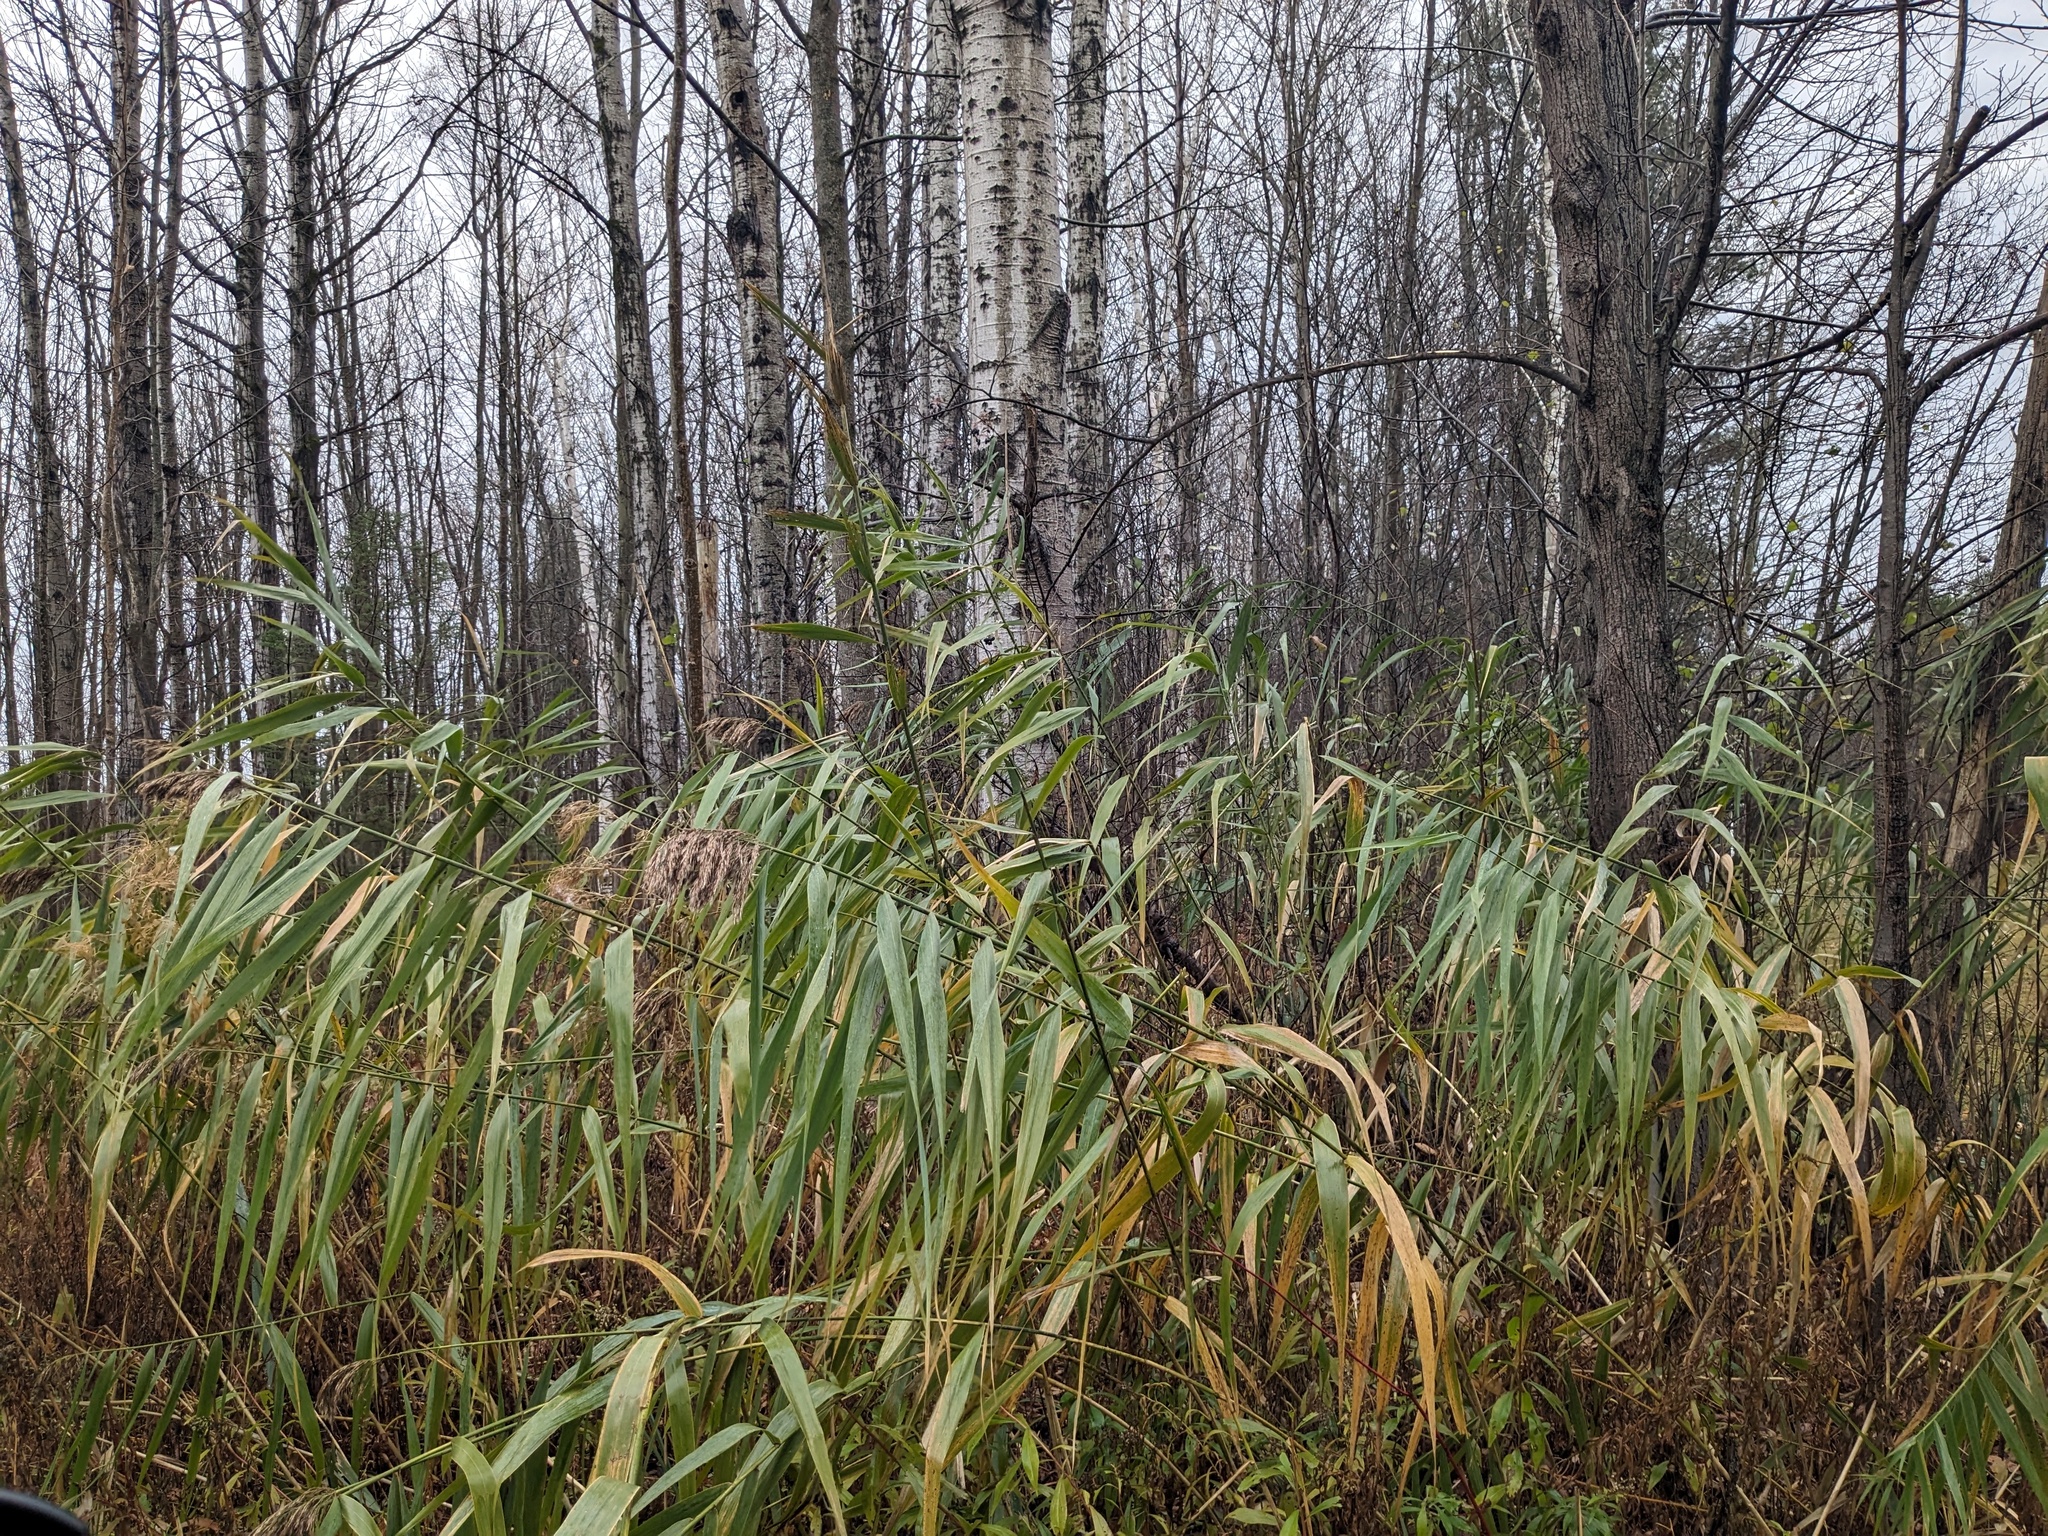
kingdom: Plantae
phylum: Tracheophyta
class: Liliopsida
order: Poales
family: Poaceae
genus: Phragmites
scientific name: Phragmites australis
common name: Common reed
